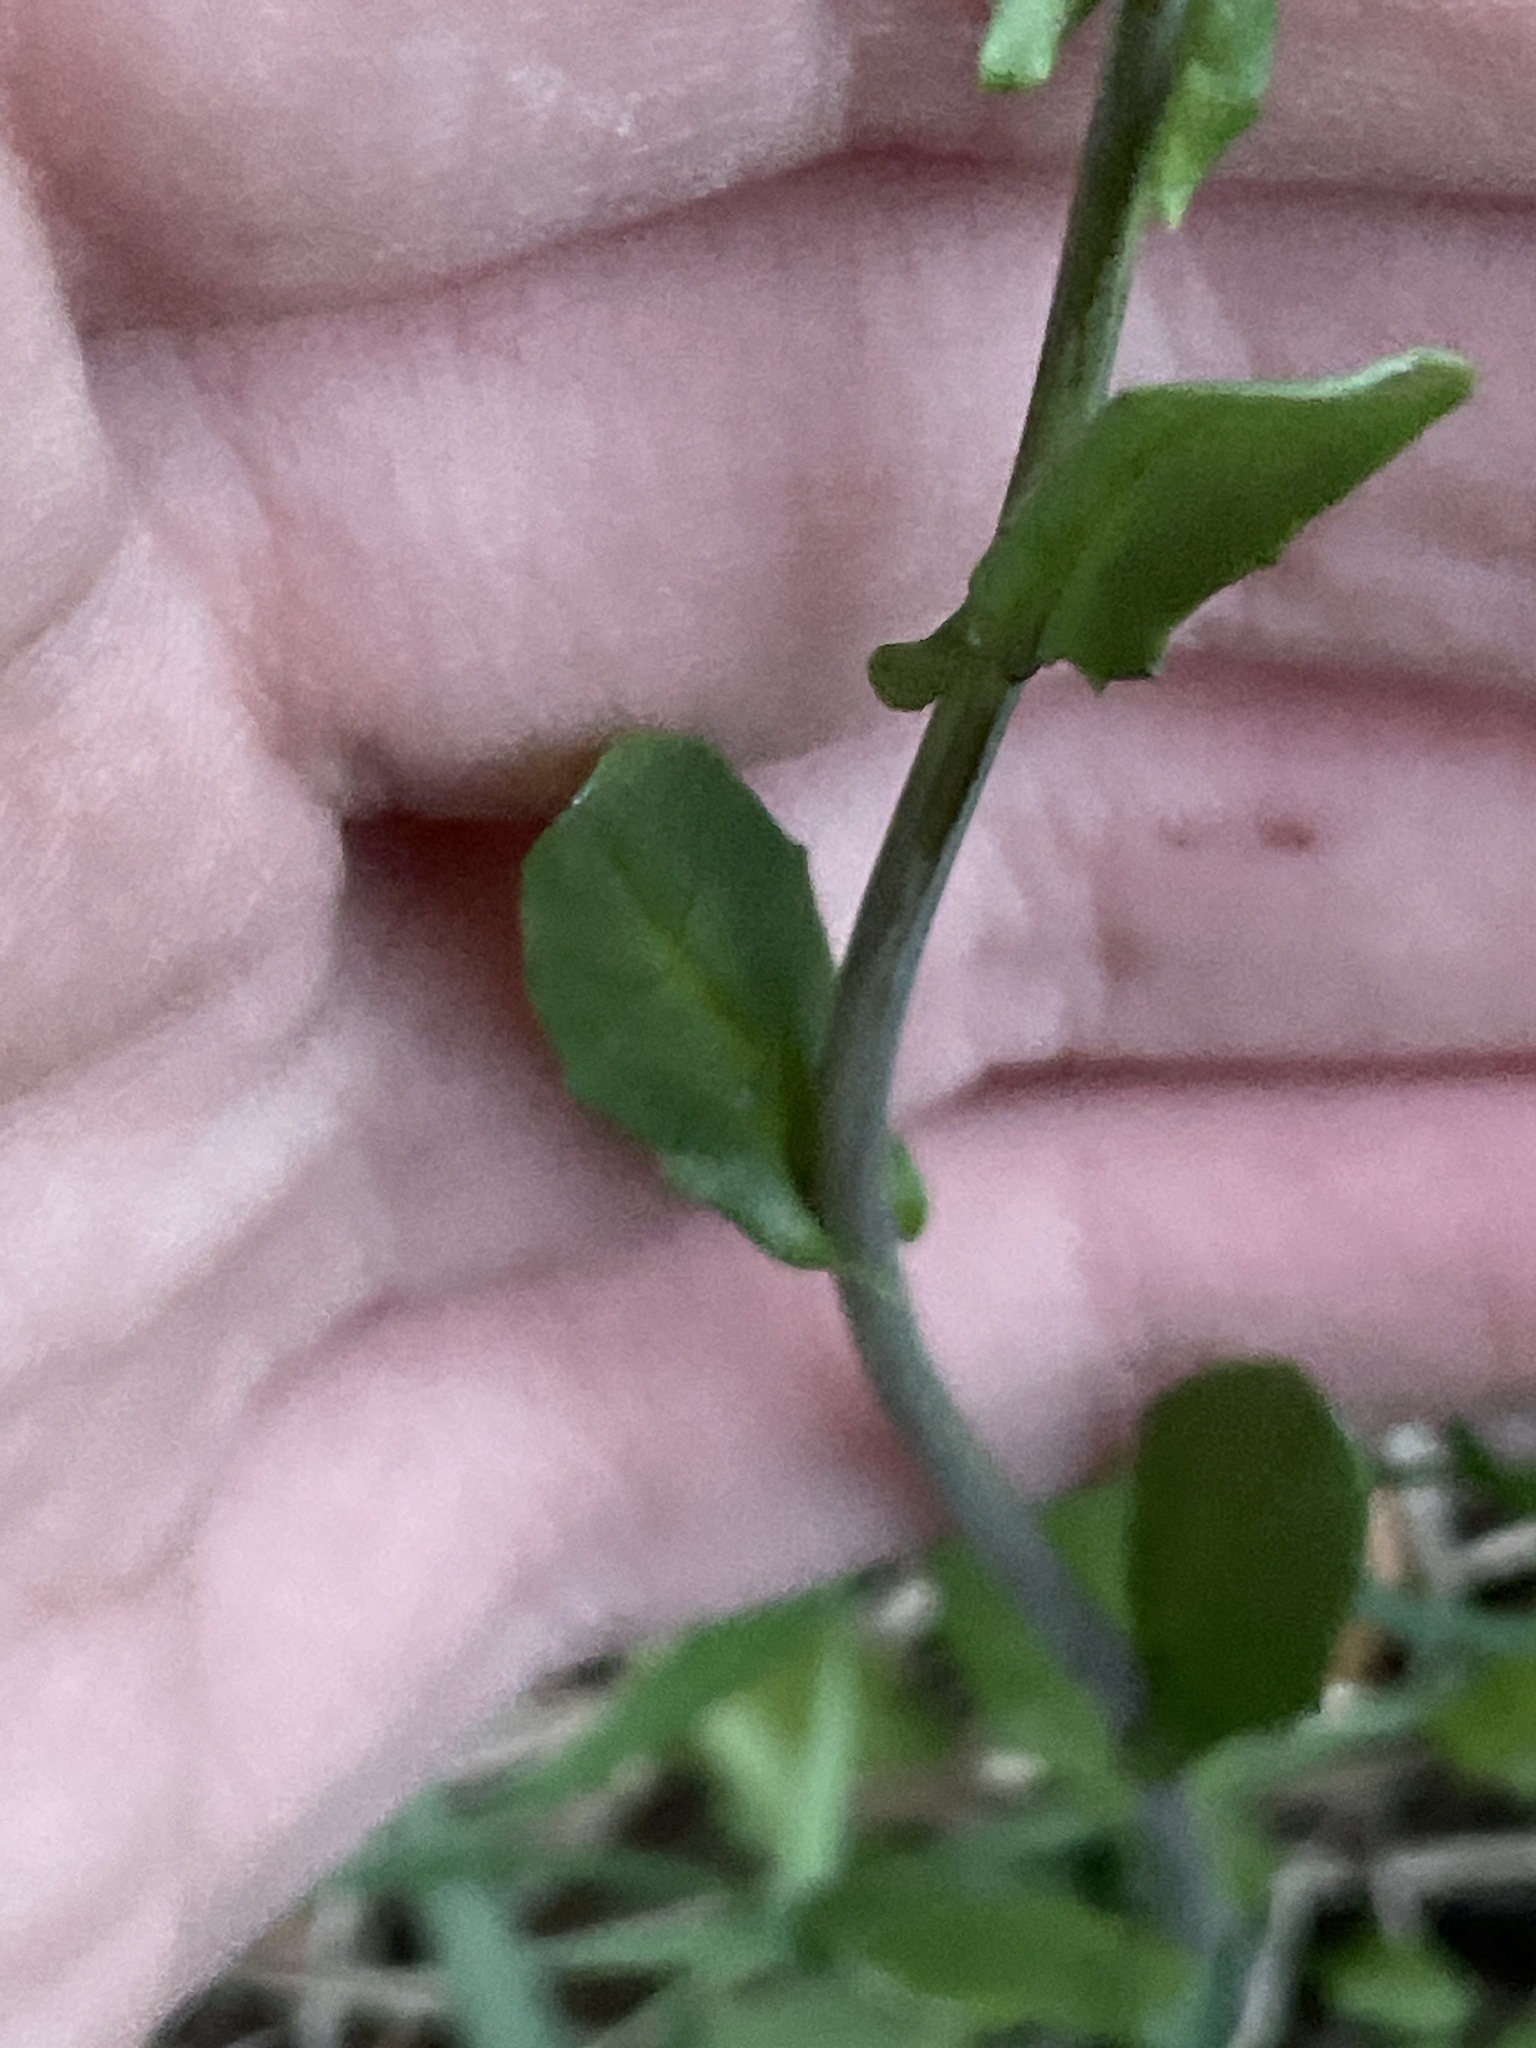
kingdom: Plantae
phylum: Tracheophyta
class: Magnoliopsida
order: Brassicales
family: Brassicaceae
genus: Mummenhoffia
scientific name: Mummenhoffia alliacea
